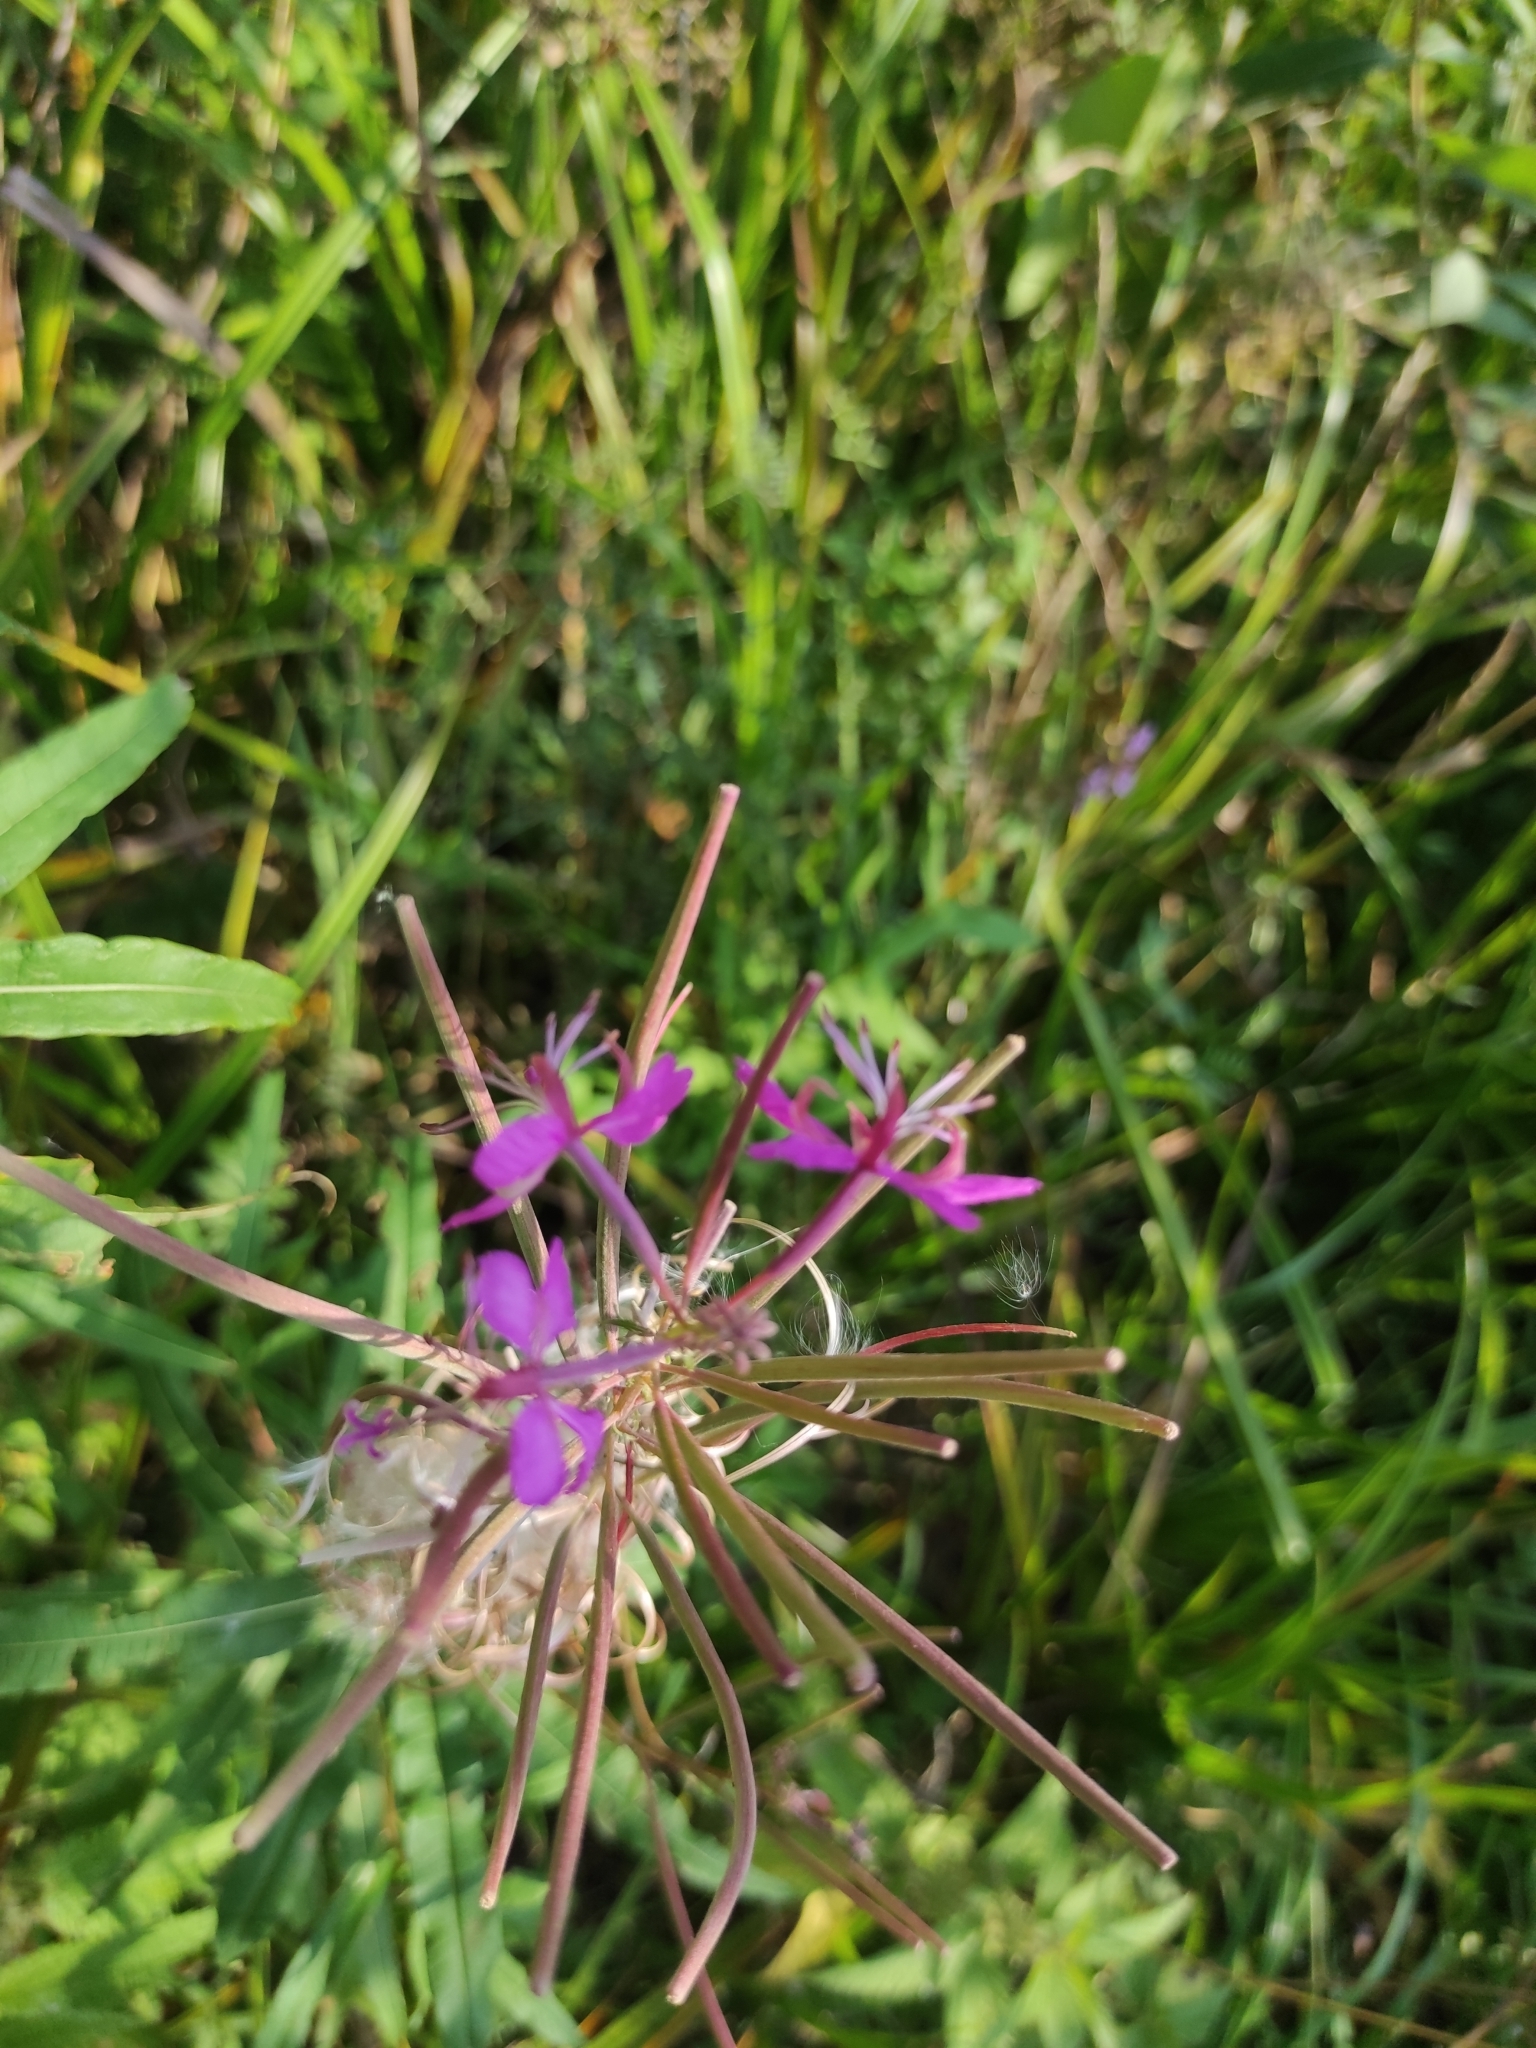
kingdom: Plantae
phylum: Tracheophyta
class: Magnoliopsida
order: Myrtales
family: Onagraceae
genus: Chamaenerion
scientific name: Chamaenerion angustifolium
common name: Fireweed
